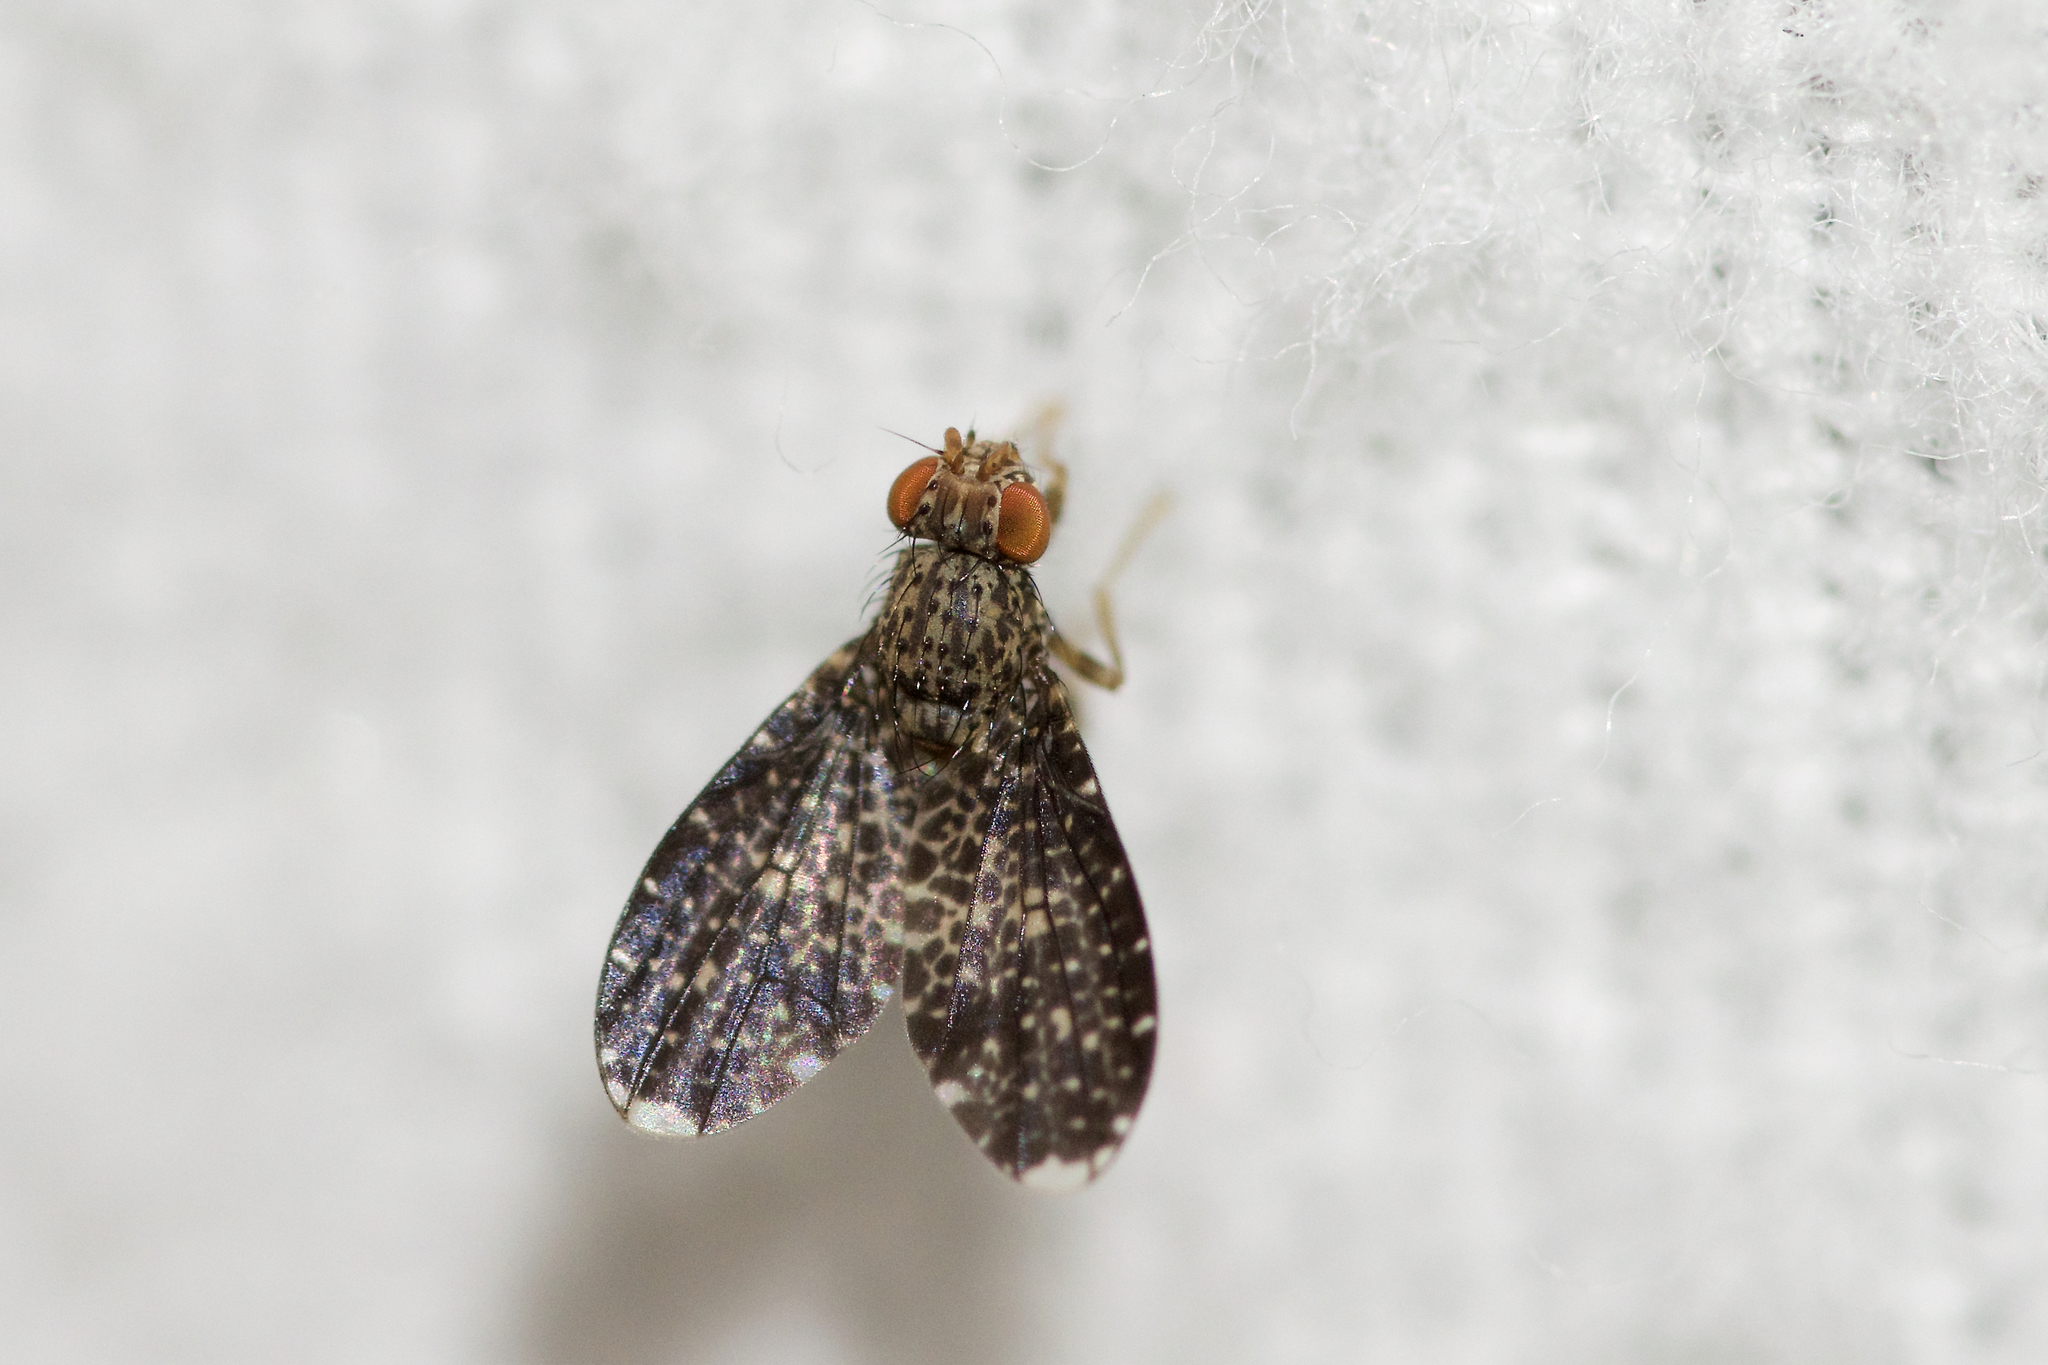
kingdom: Animalia
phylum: Arthropoda
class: Insecta
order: Diptera
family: Lauxaniidae
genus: Trypetisoma
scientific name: Trypetisoma sticticum
